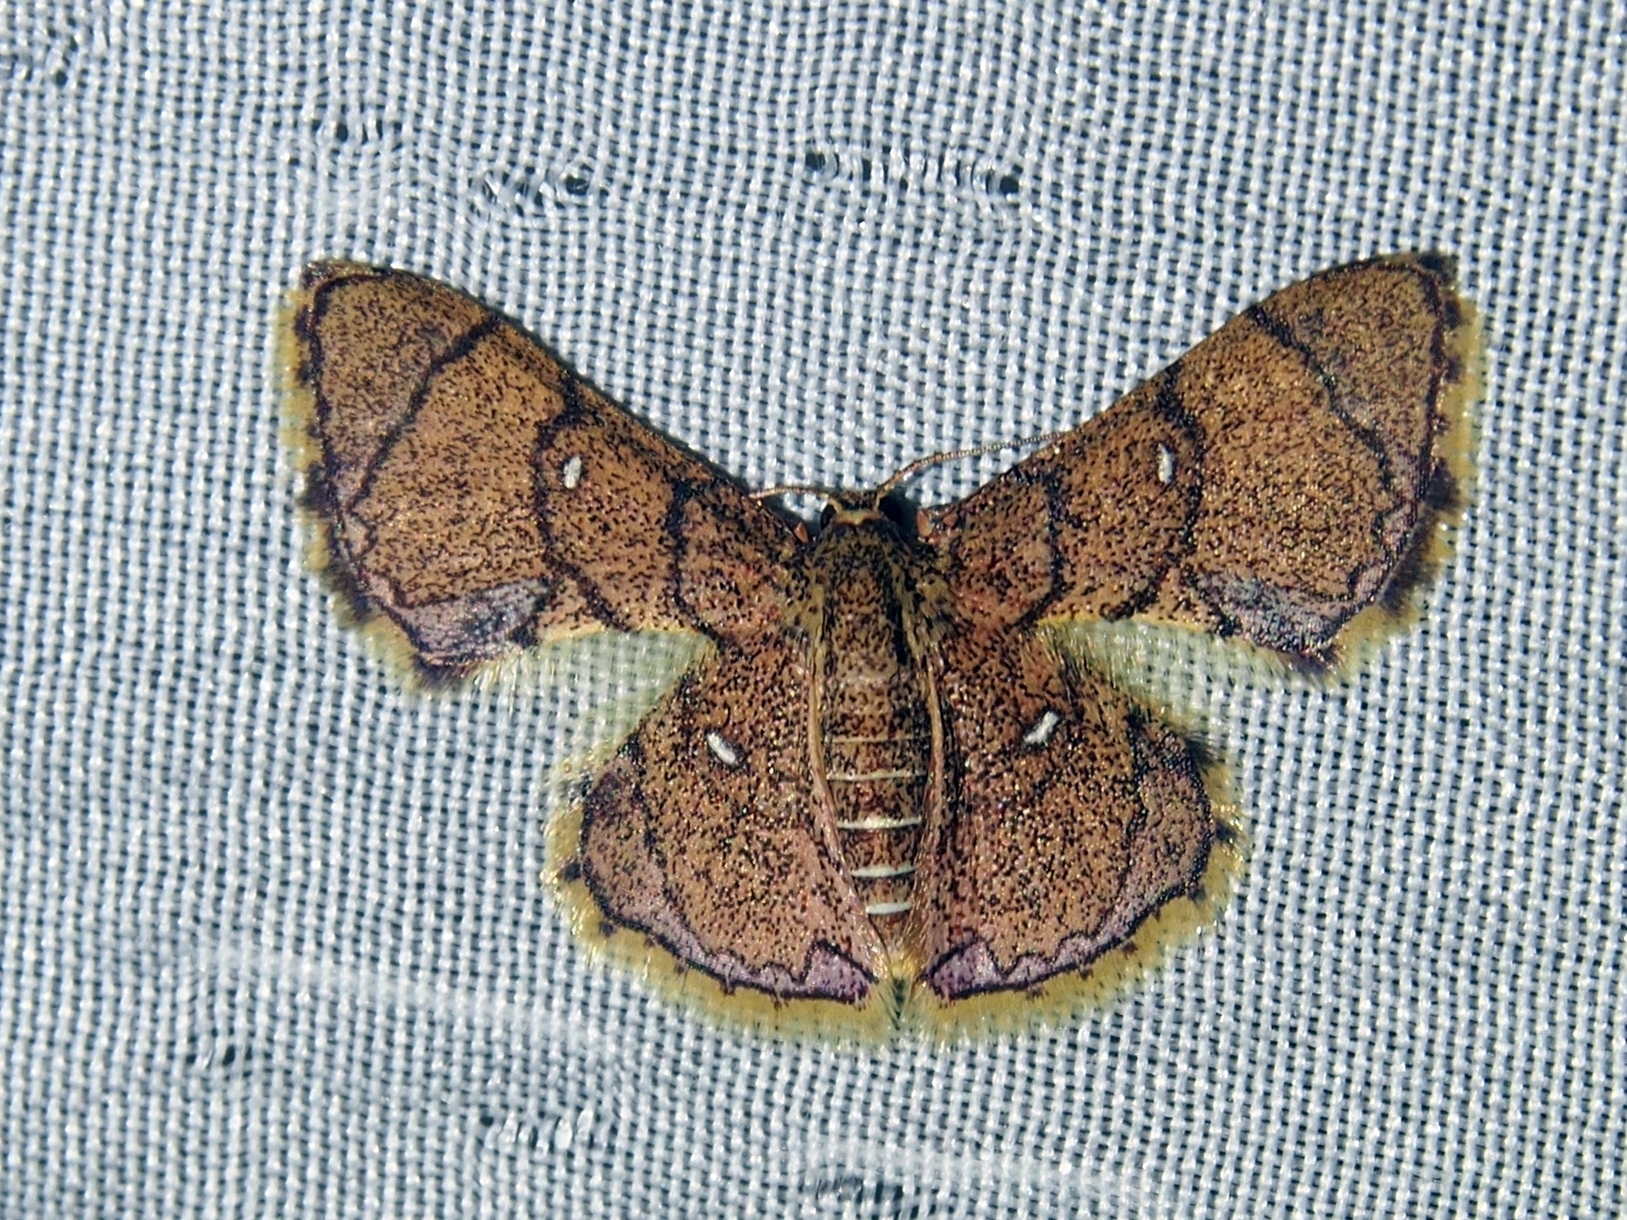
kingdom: Animalia
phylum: Arthropoda
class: Insecta
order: Lepidoptera
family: Geometridae
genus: Hemipterodes
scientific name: Hemipterodes subrotundata
